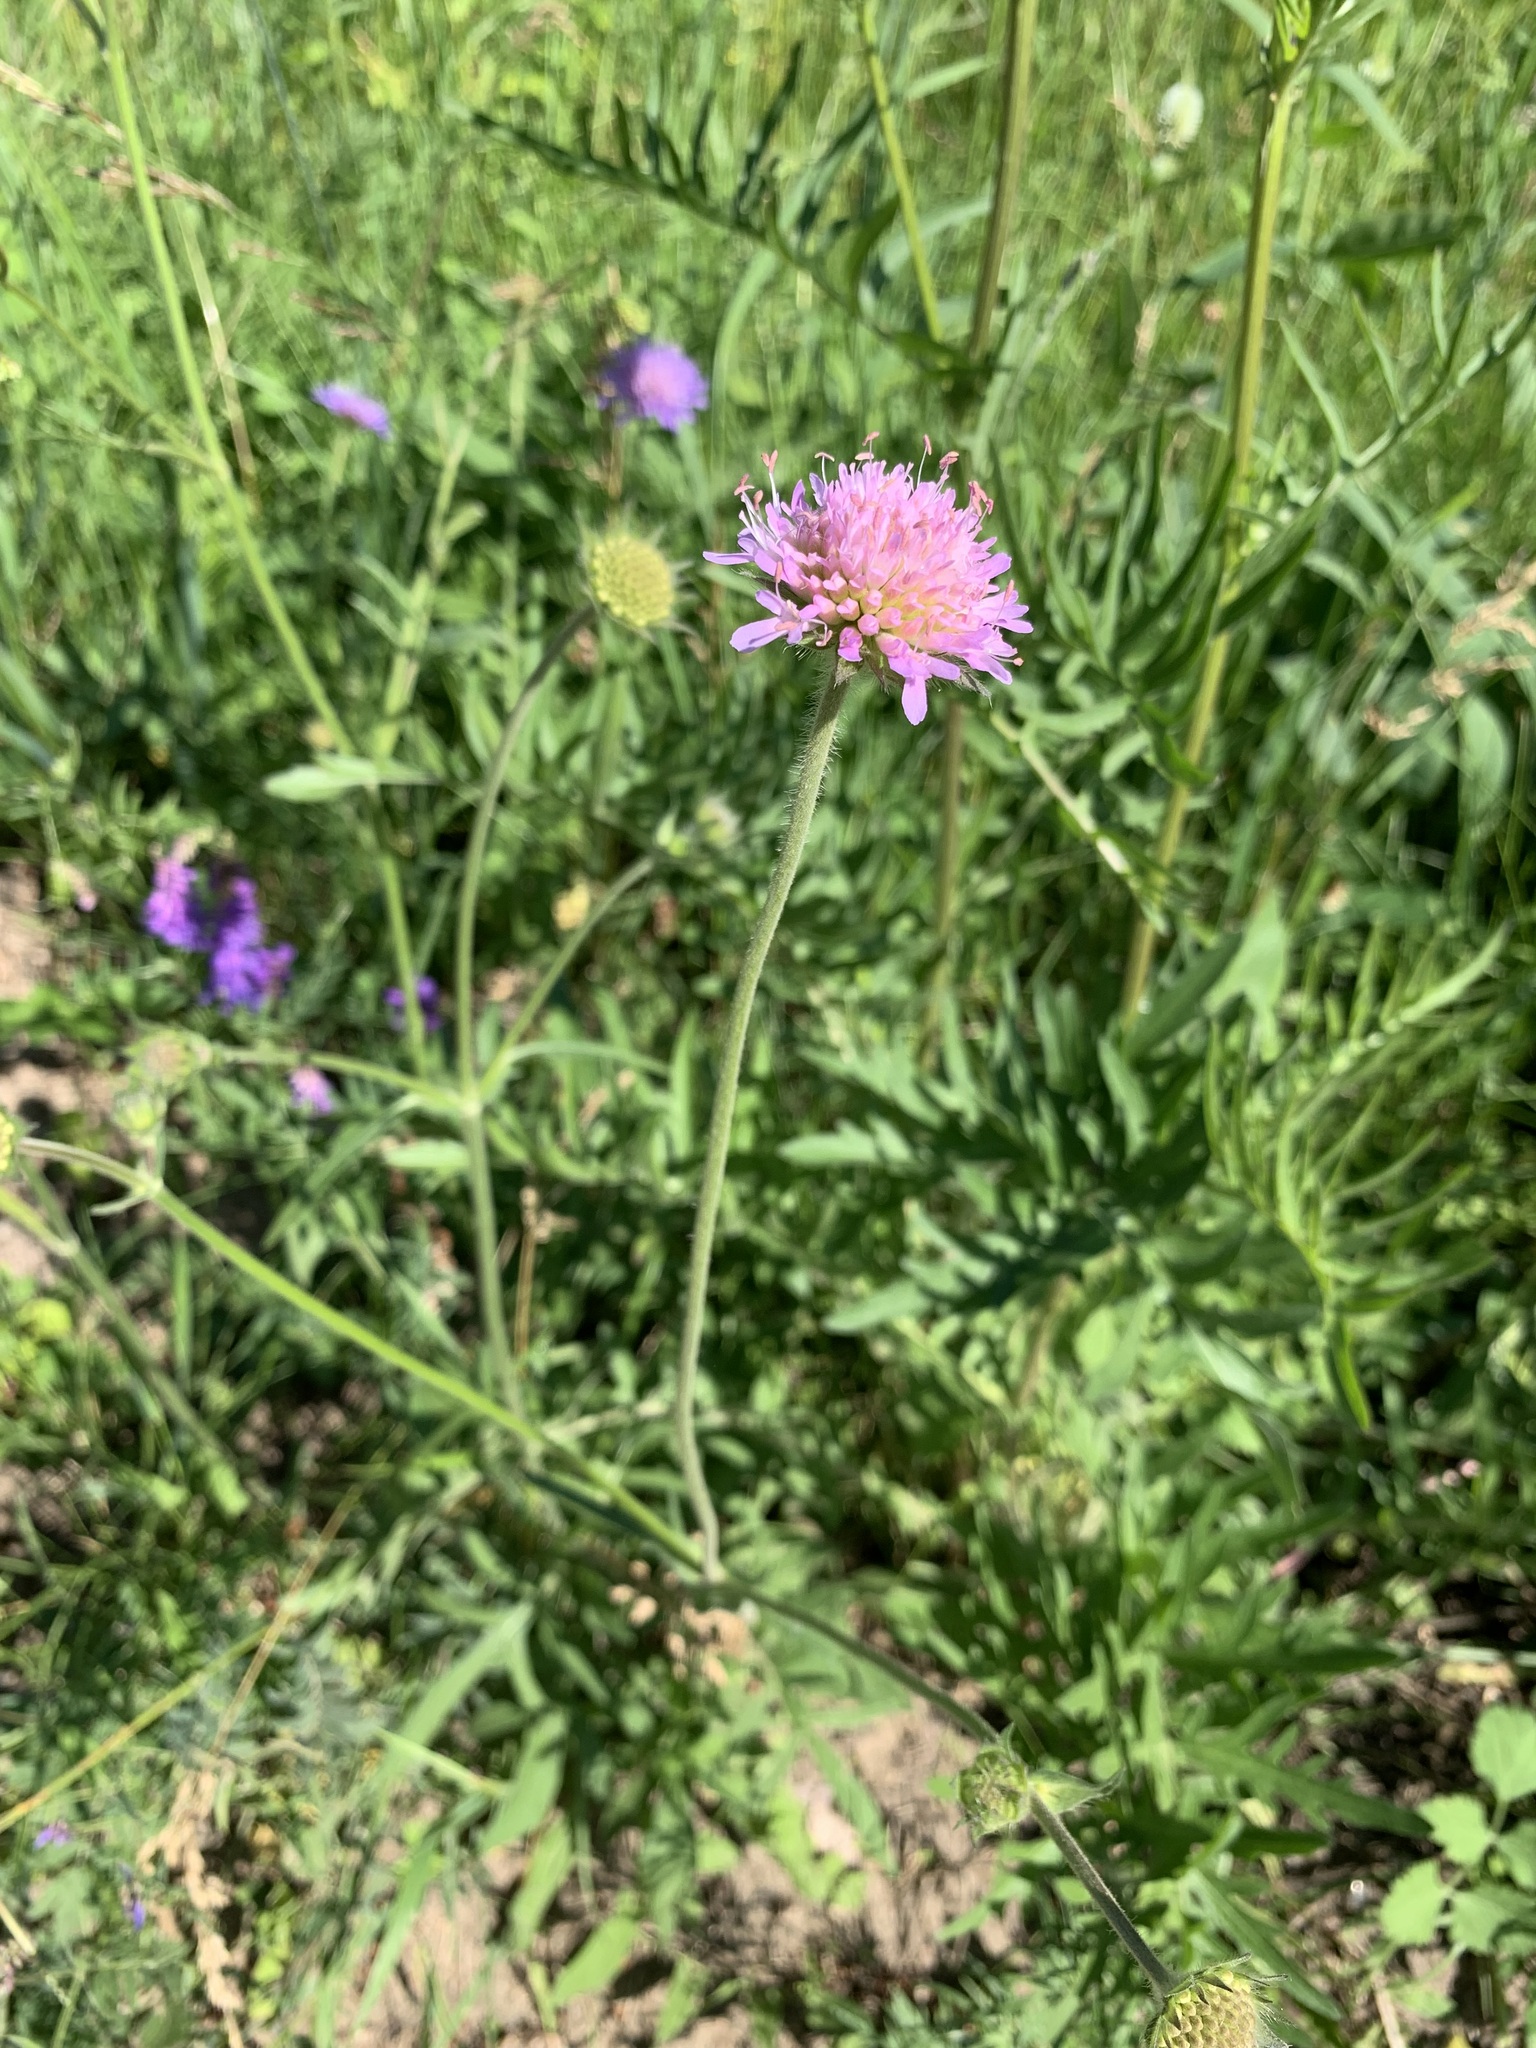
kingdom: Plantae
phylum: Tracheophyta
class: Magnoliopsida
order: Dipsacales
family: Caprifoliaceae
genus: Knautia
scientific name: Knautia arvensis
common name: Field scabiosa
